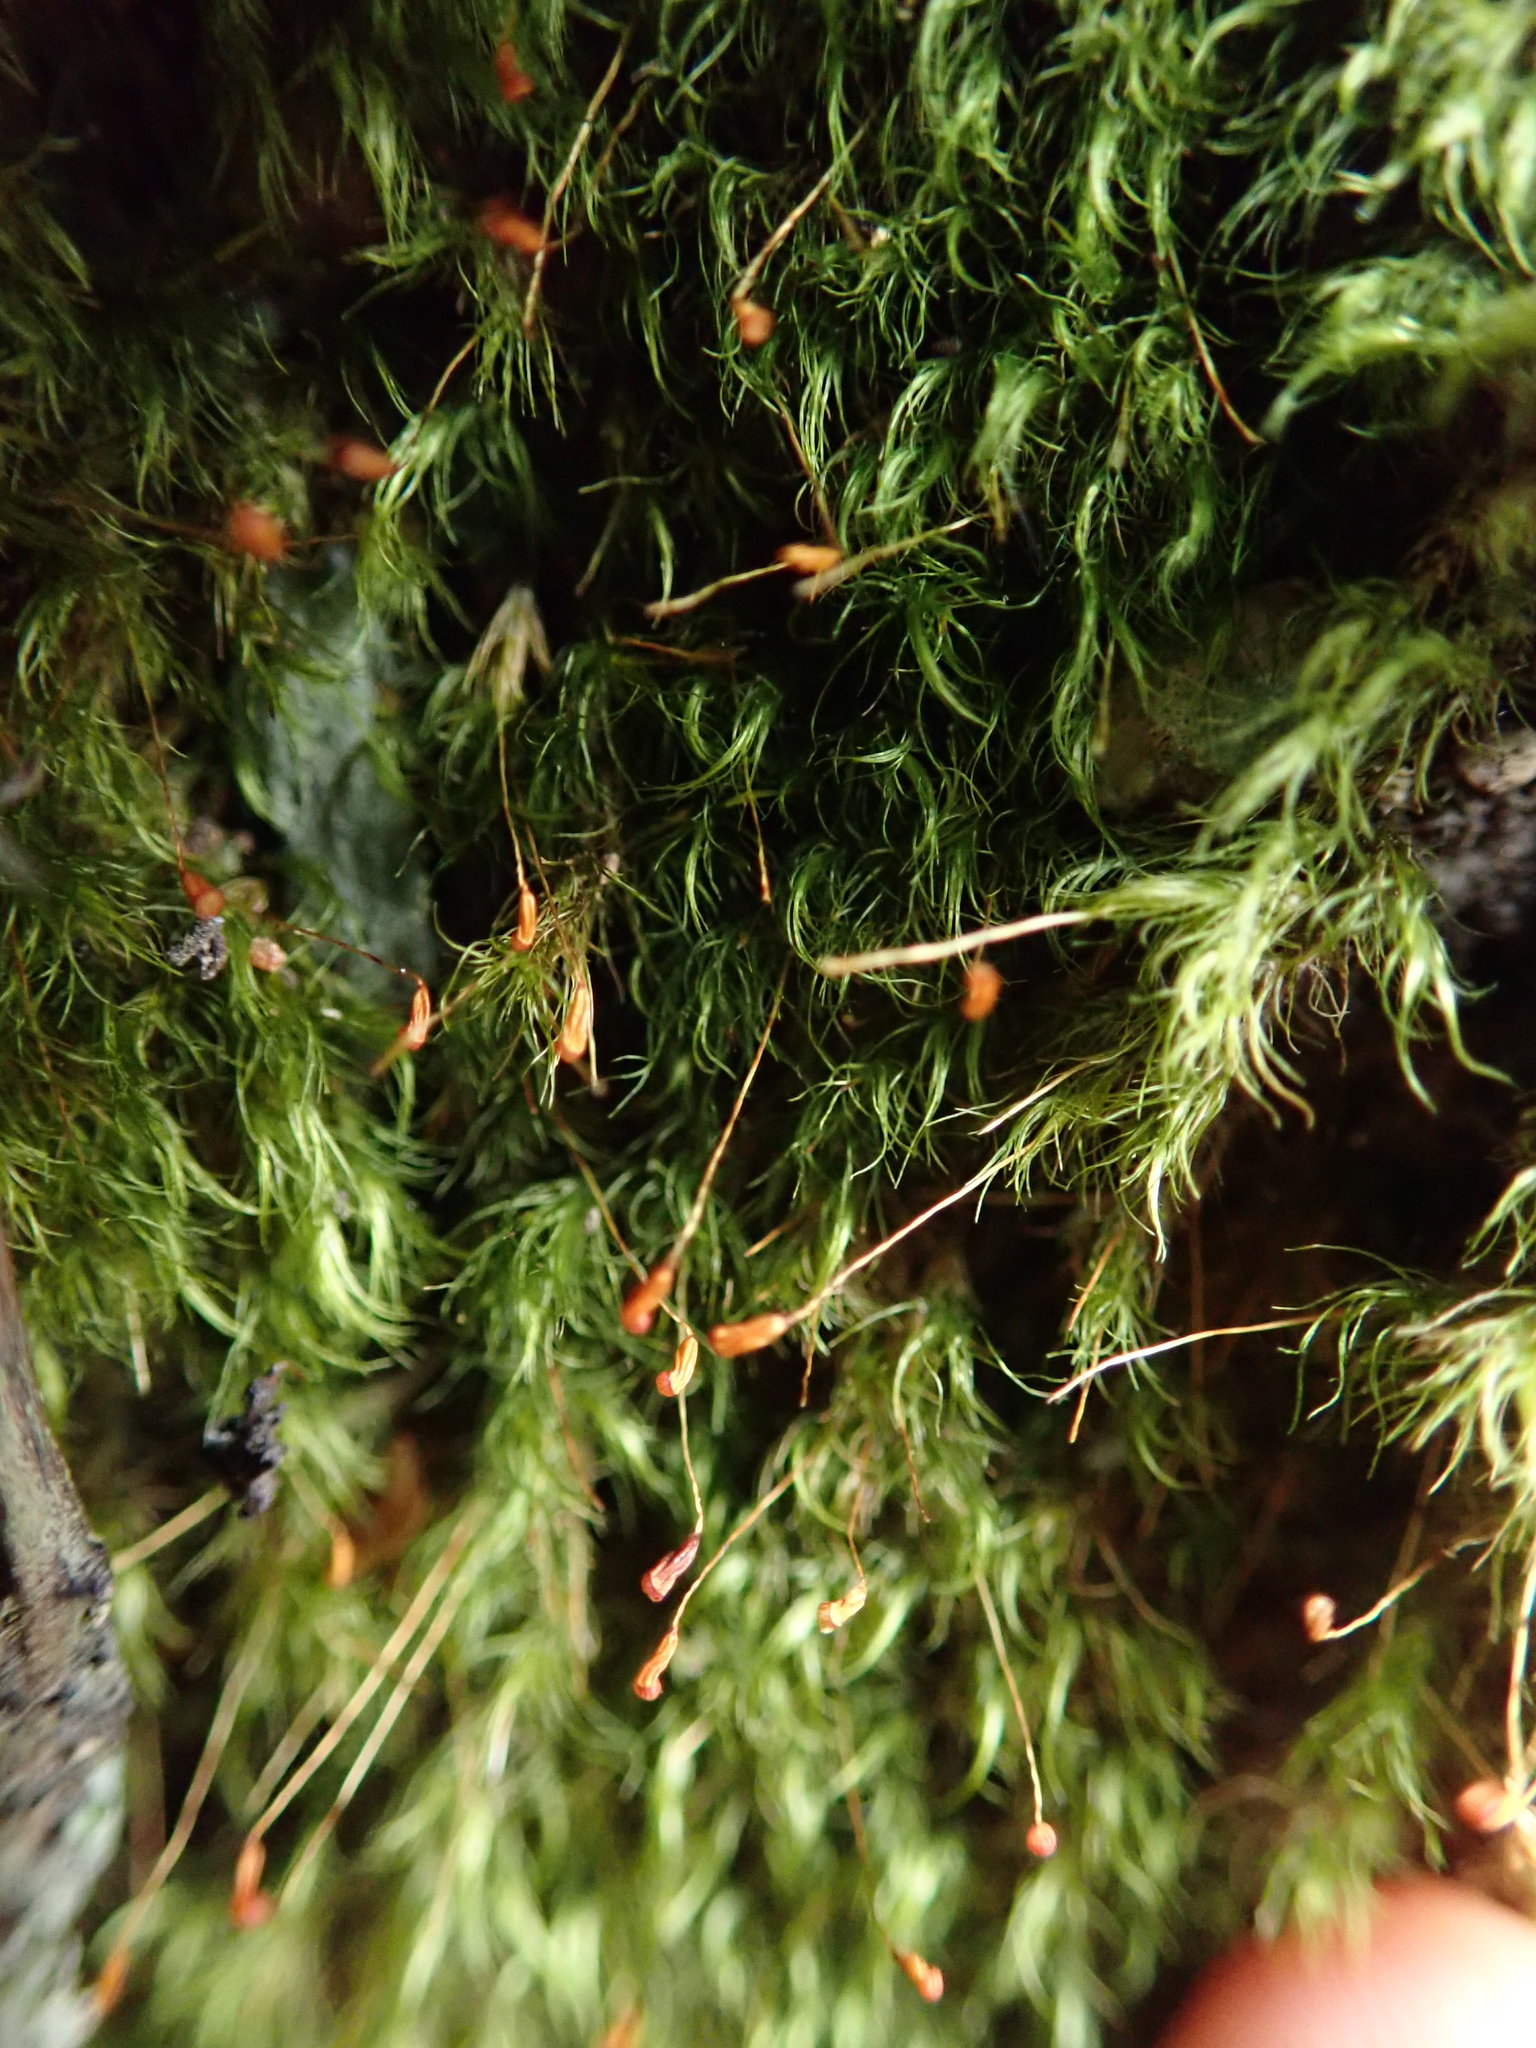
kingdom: Plantae
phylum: Bryophyta
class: Bryopsida
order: Dicranales
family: Dicranellaceae
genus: Dicranella
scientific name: Dicranella heteromalla
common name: Silky forklet moss
